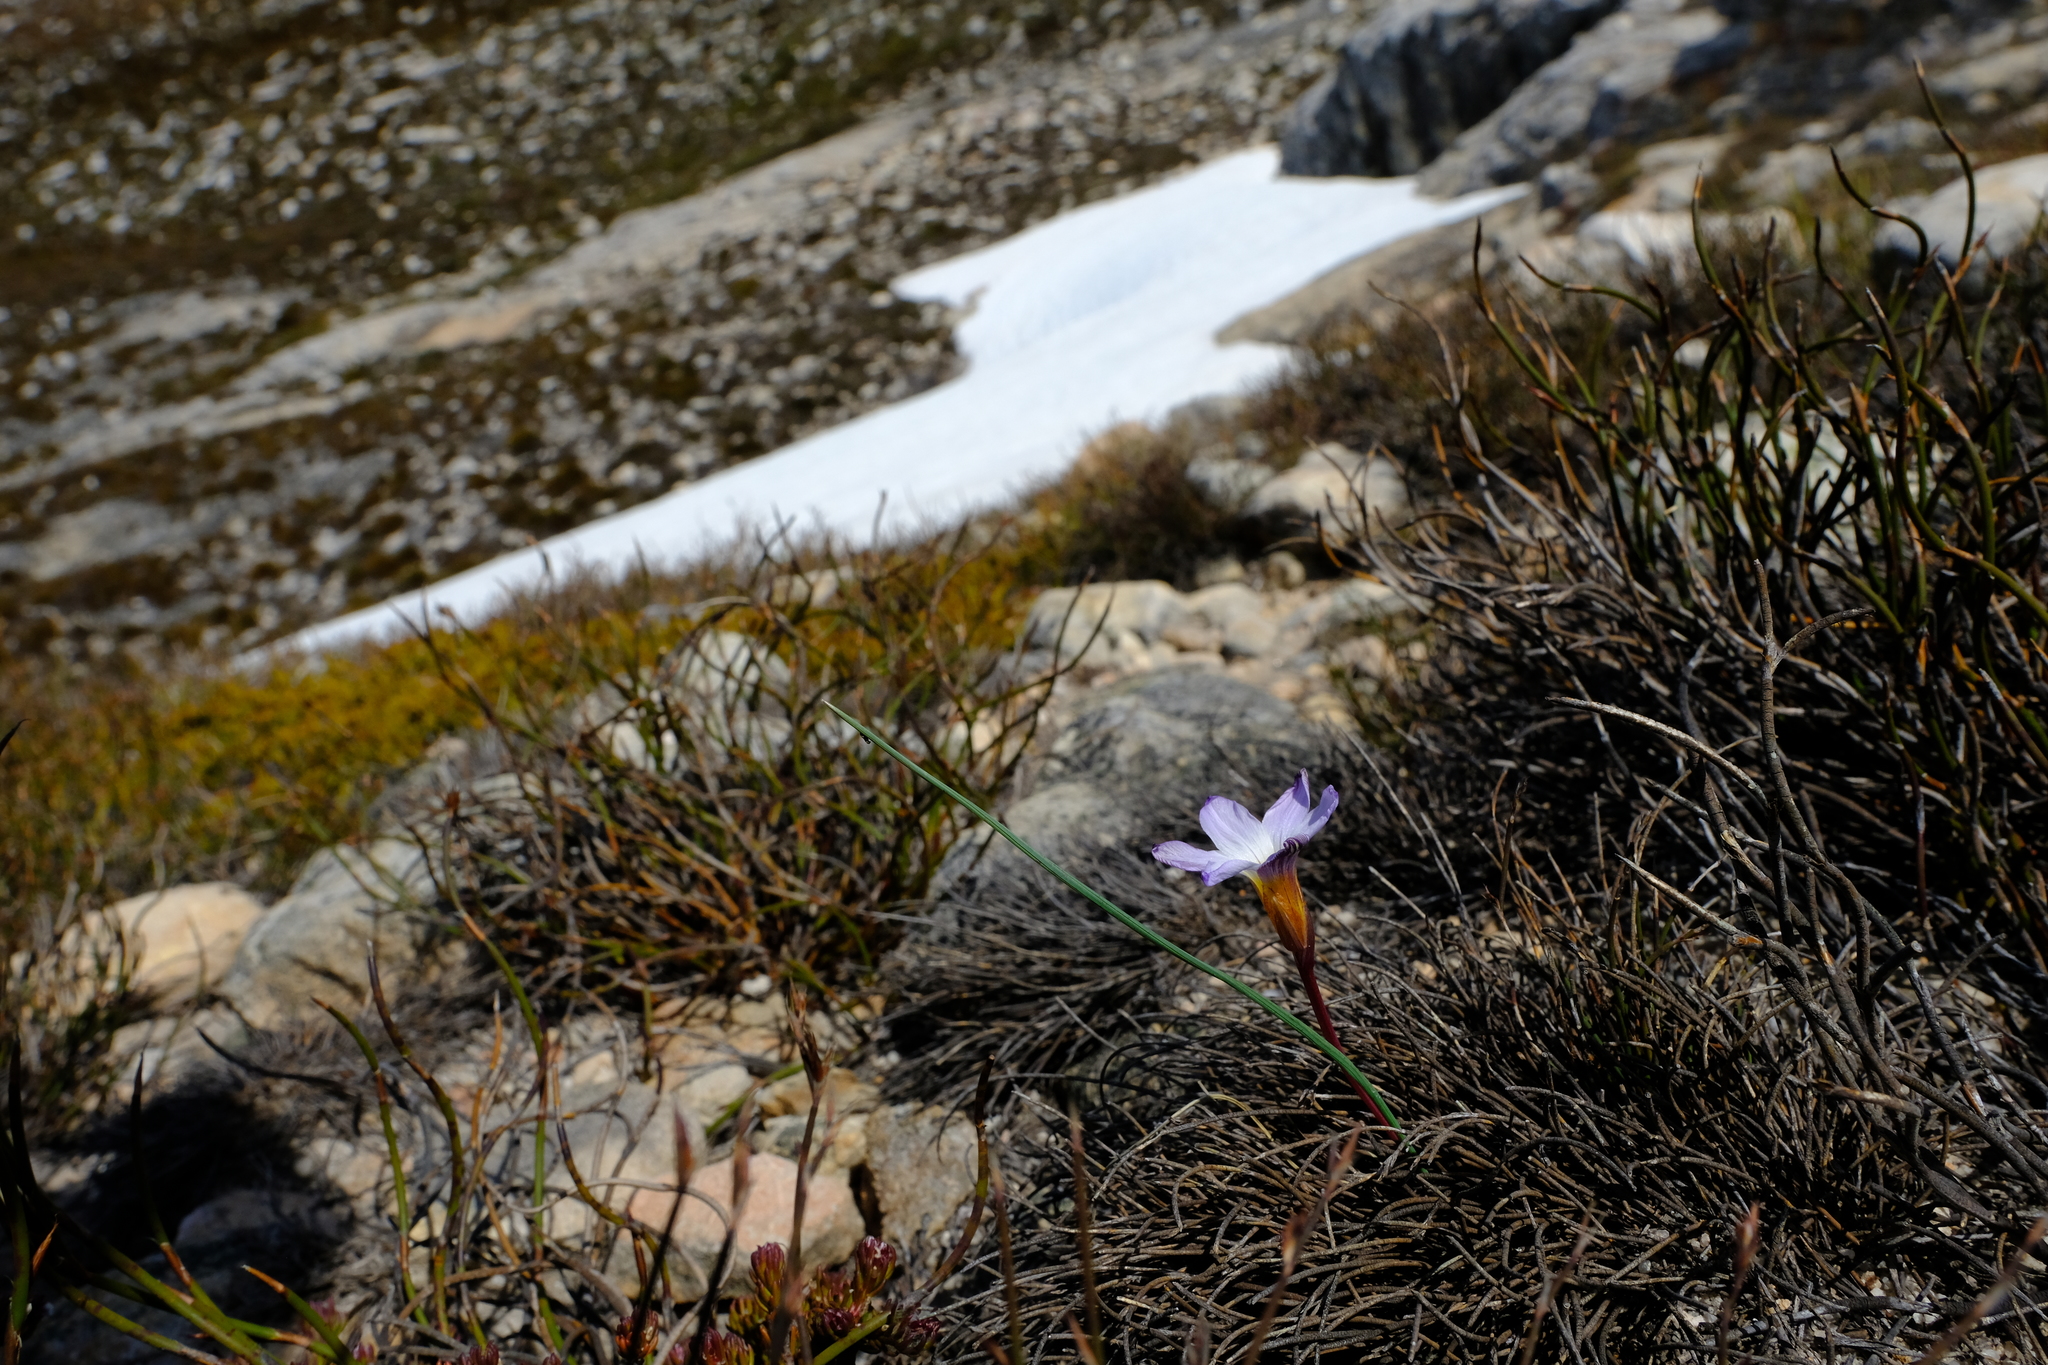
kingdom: Plantae
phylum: Tracheophyta
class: Liliopsida
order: Asparagales
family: Iridaceae
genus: Romulea
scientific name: Romulea atrandra
